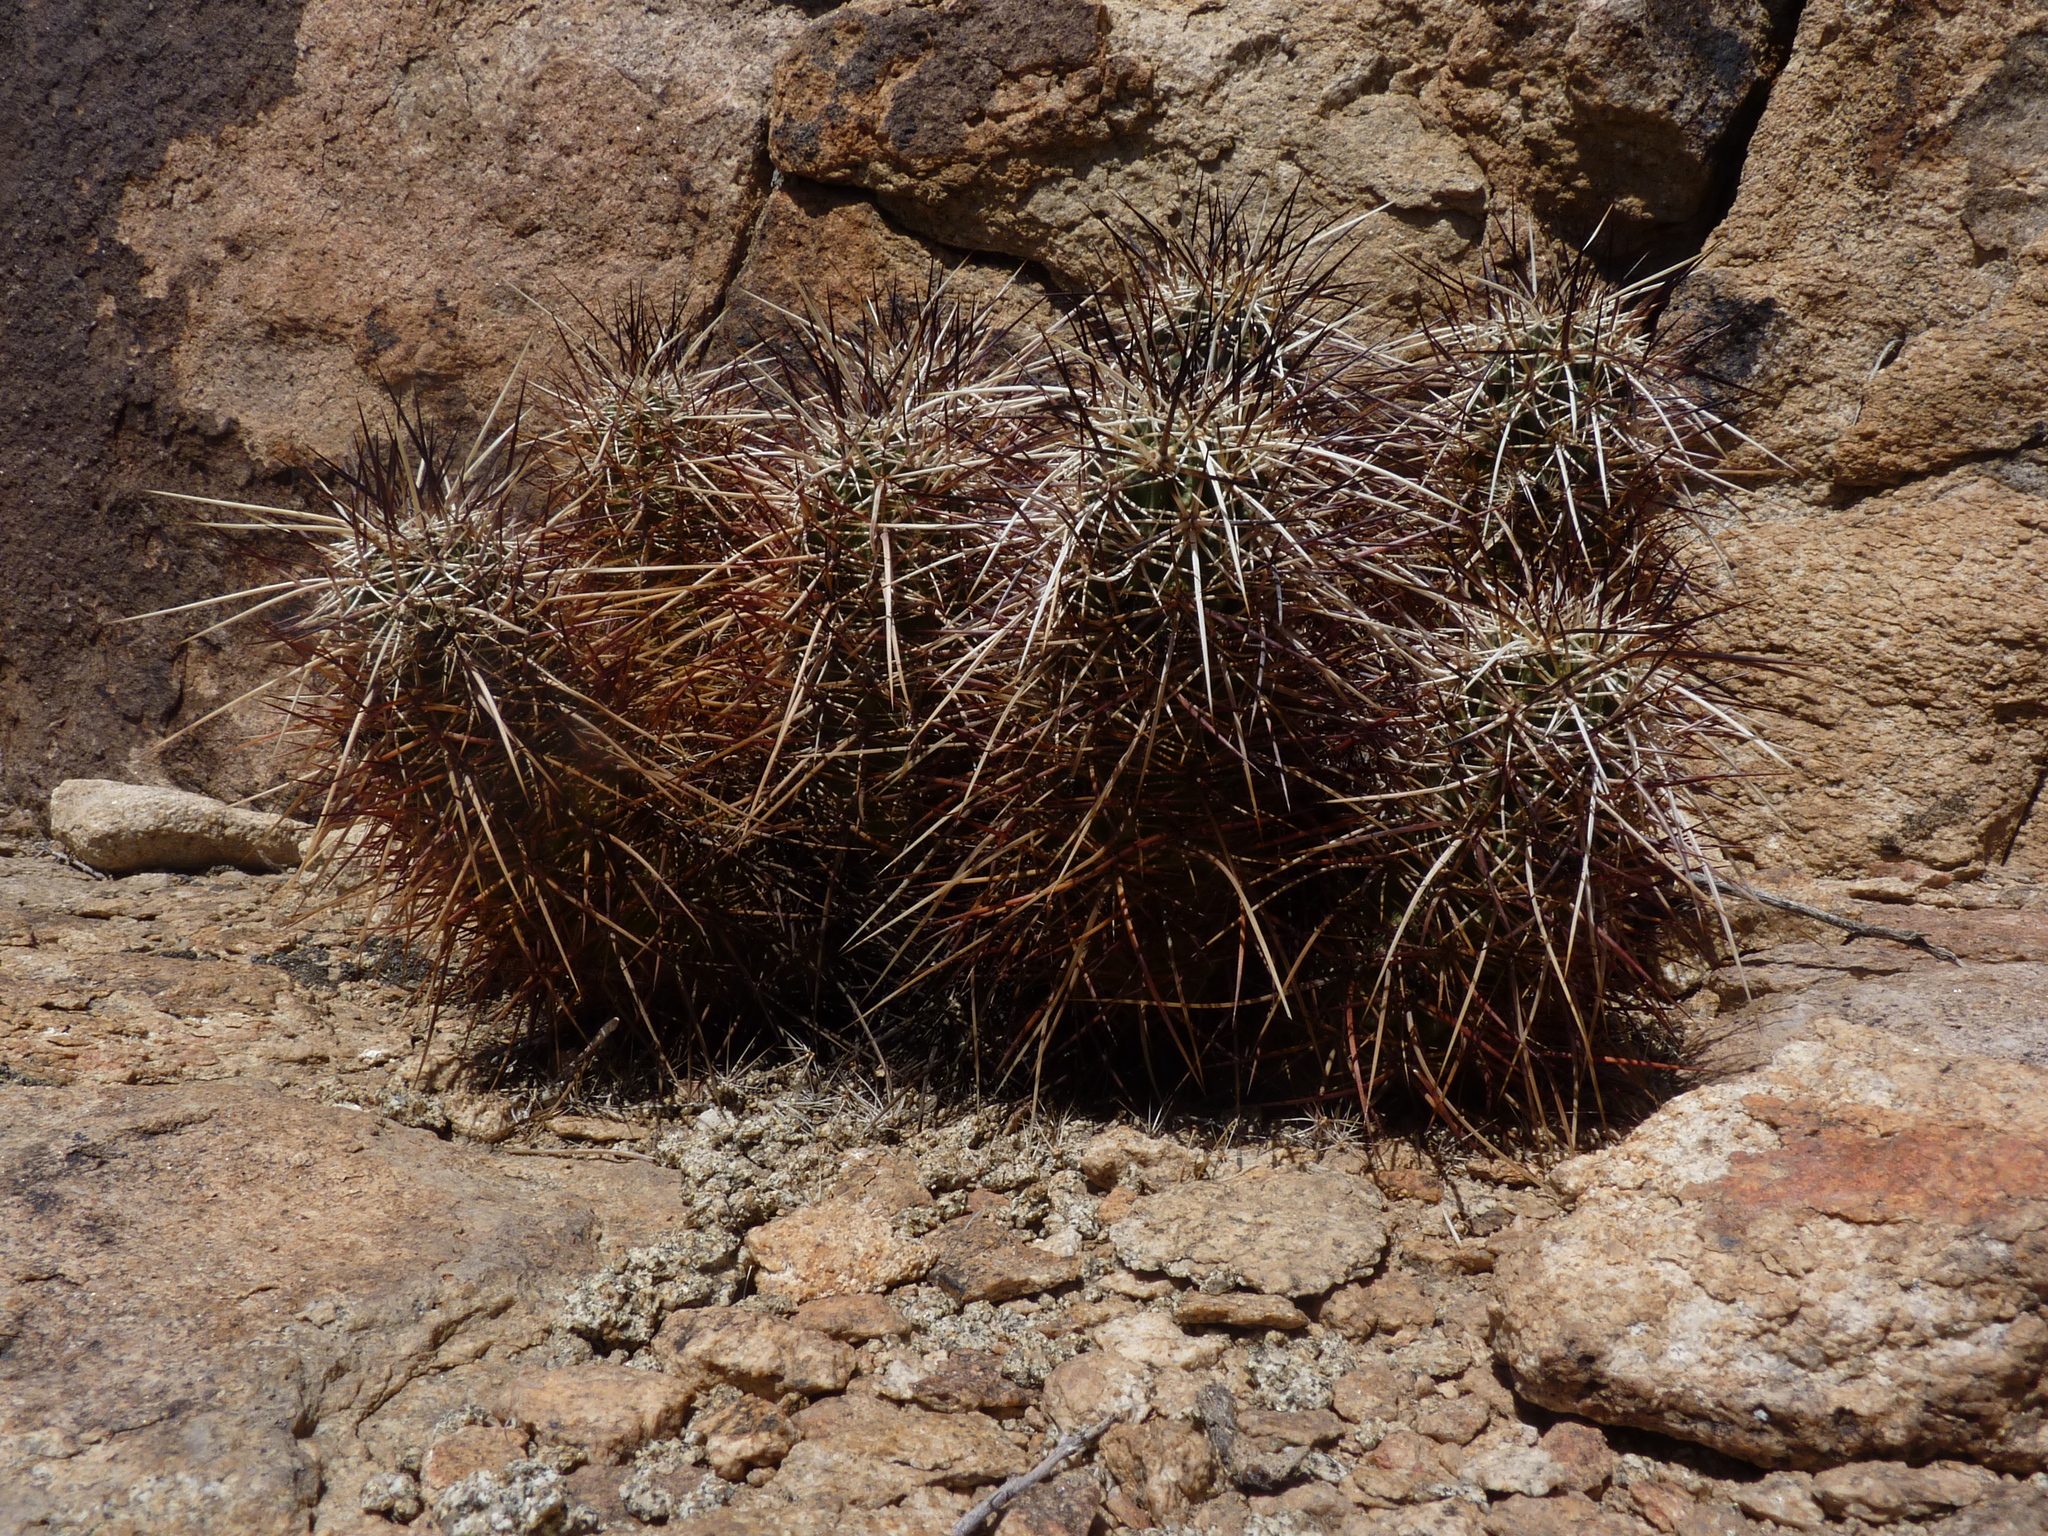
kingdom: Plantae
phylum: Tracheophyta
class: Magnoliopsida
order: Caryophyllales
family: Cactaceae
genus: Echinocereus
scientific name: Echinocereus engelmannii
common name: Engelmann's hedgehog cactus
